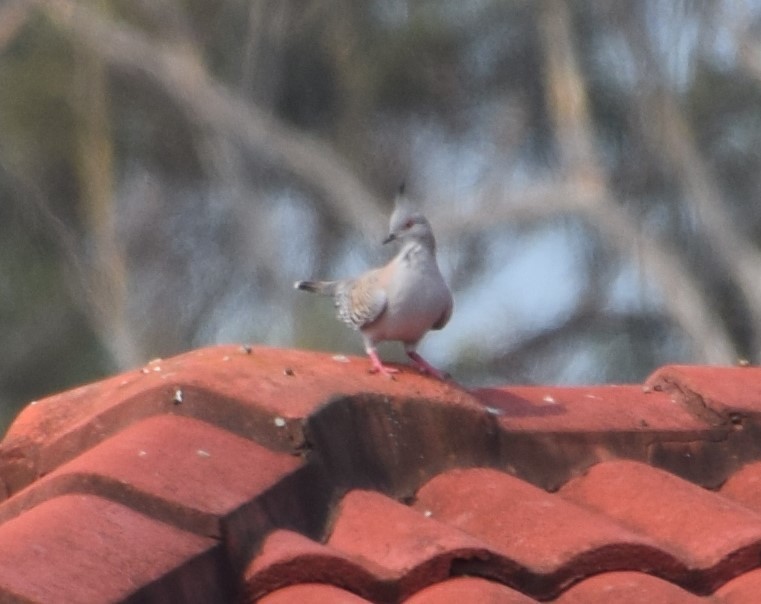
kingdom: Animalia
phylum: Chordata
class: Aves
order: Columbiformes
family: Columbidae
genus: Ocyphaps
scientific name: Ocyphaps lophotes
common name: Crested pigeon
